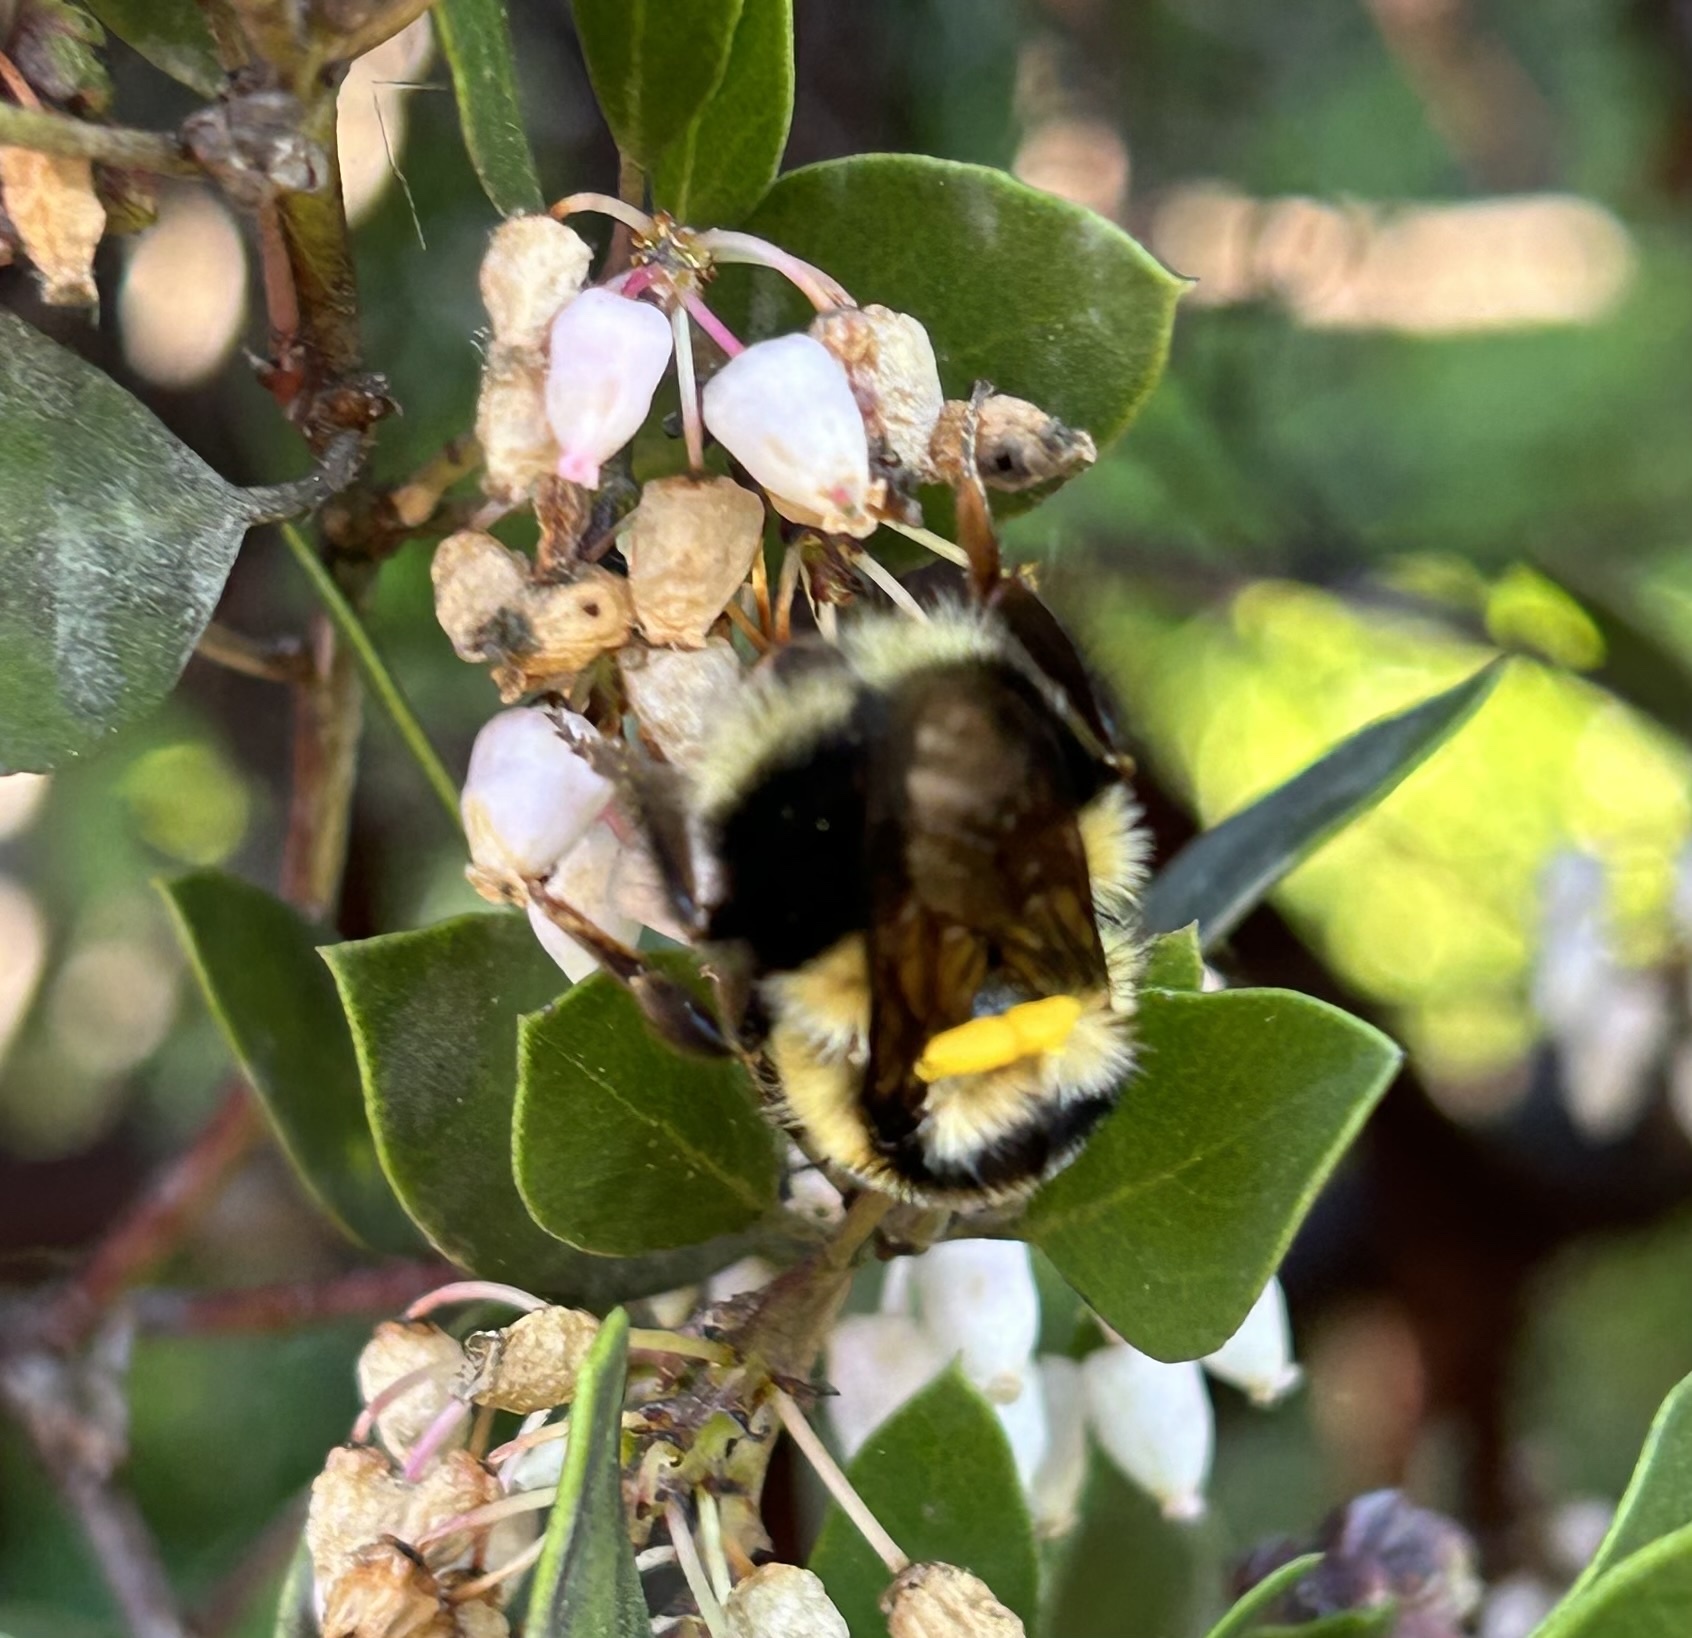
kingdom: Animalia
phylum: Arthropoda
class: Insecta
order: Hymenoptera
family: Apidae
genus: Bombus
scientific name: Bombus melanopygus
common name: Black tail bumble bee
